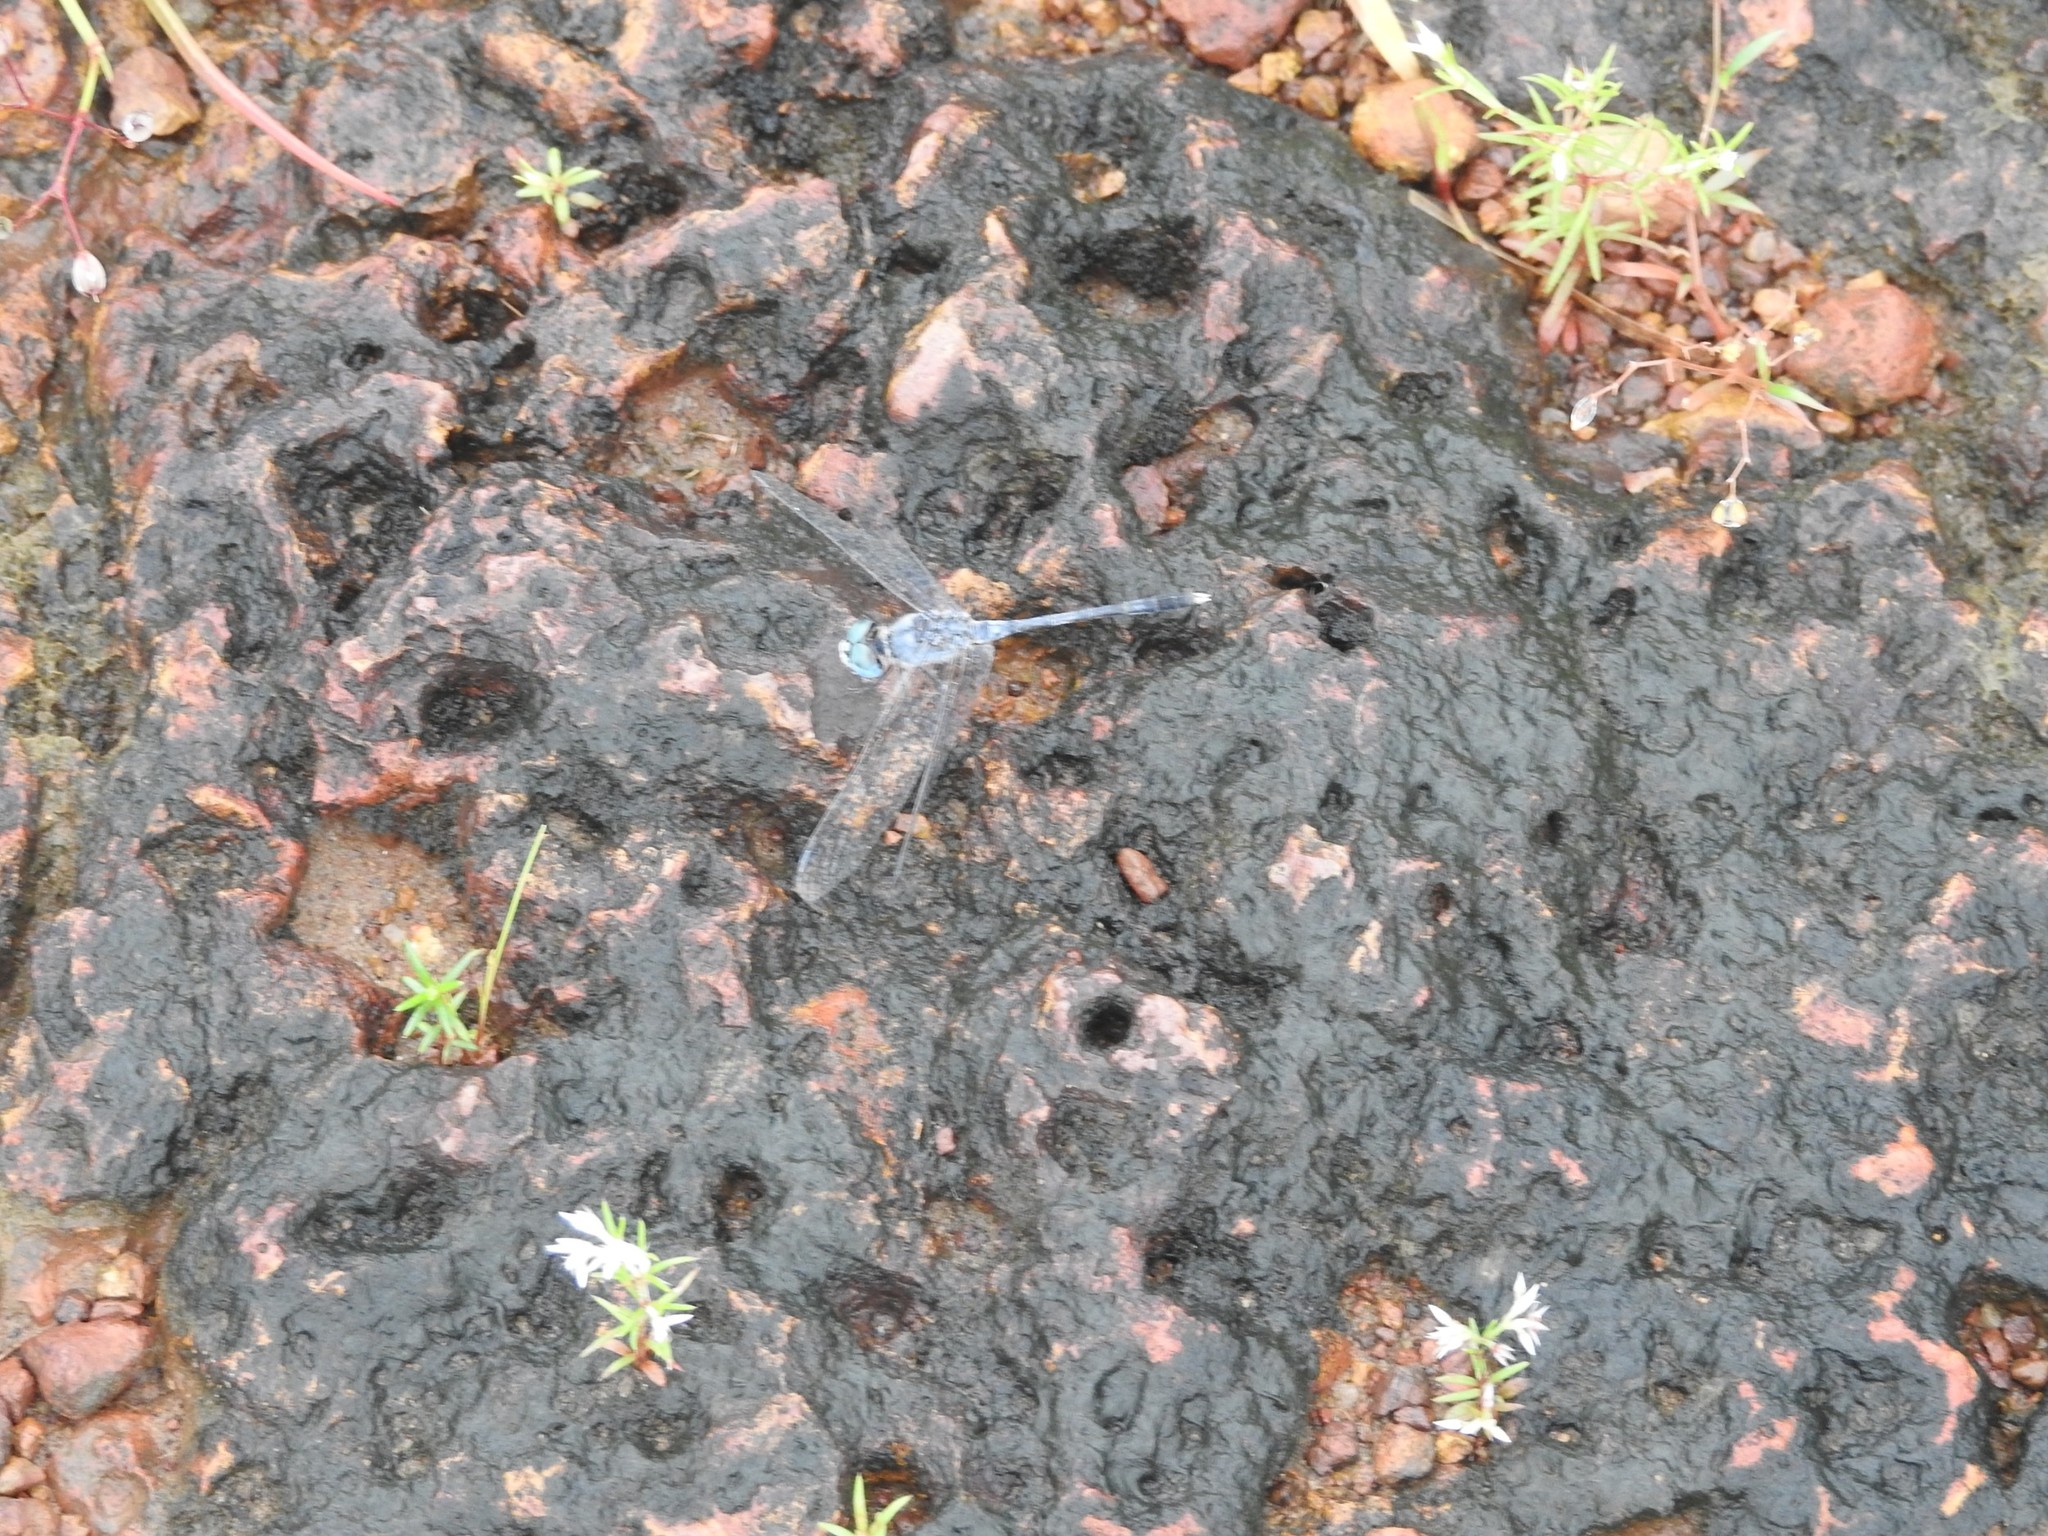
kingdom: Animalia
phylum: Arthropoda
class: Insecta
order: Odonata
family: Libellulidae
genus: Diplacodes
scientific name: Diplacodes trivialis
